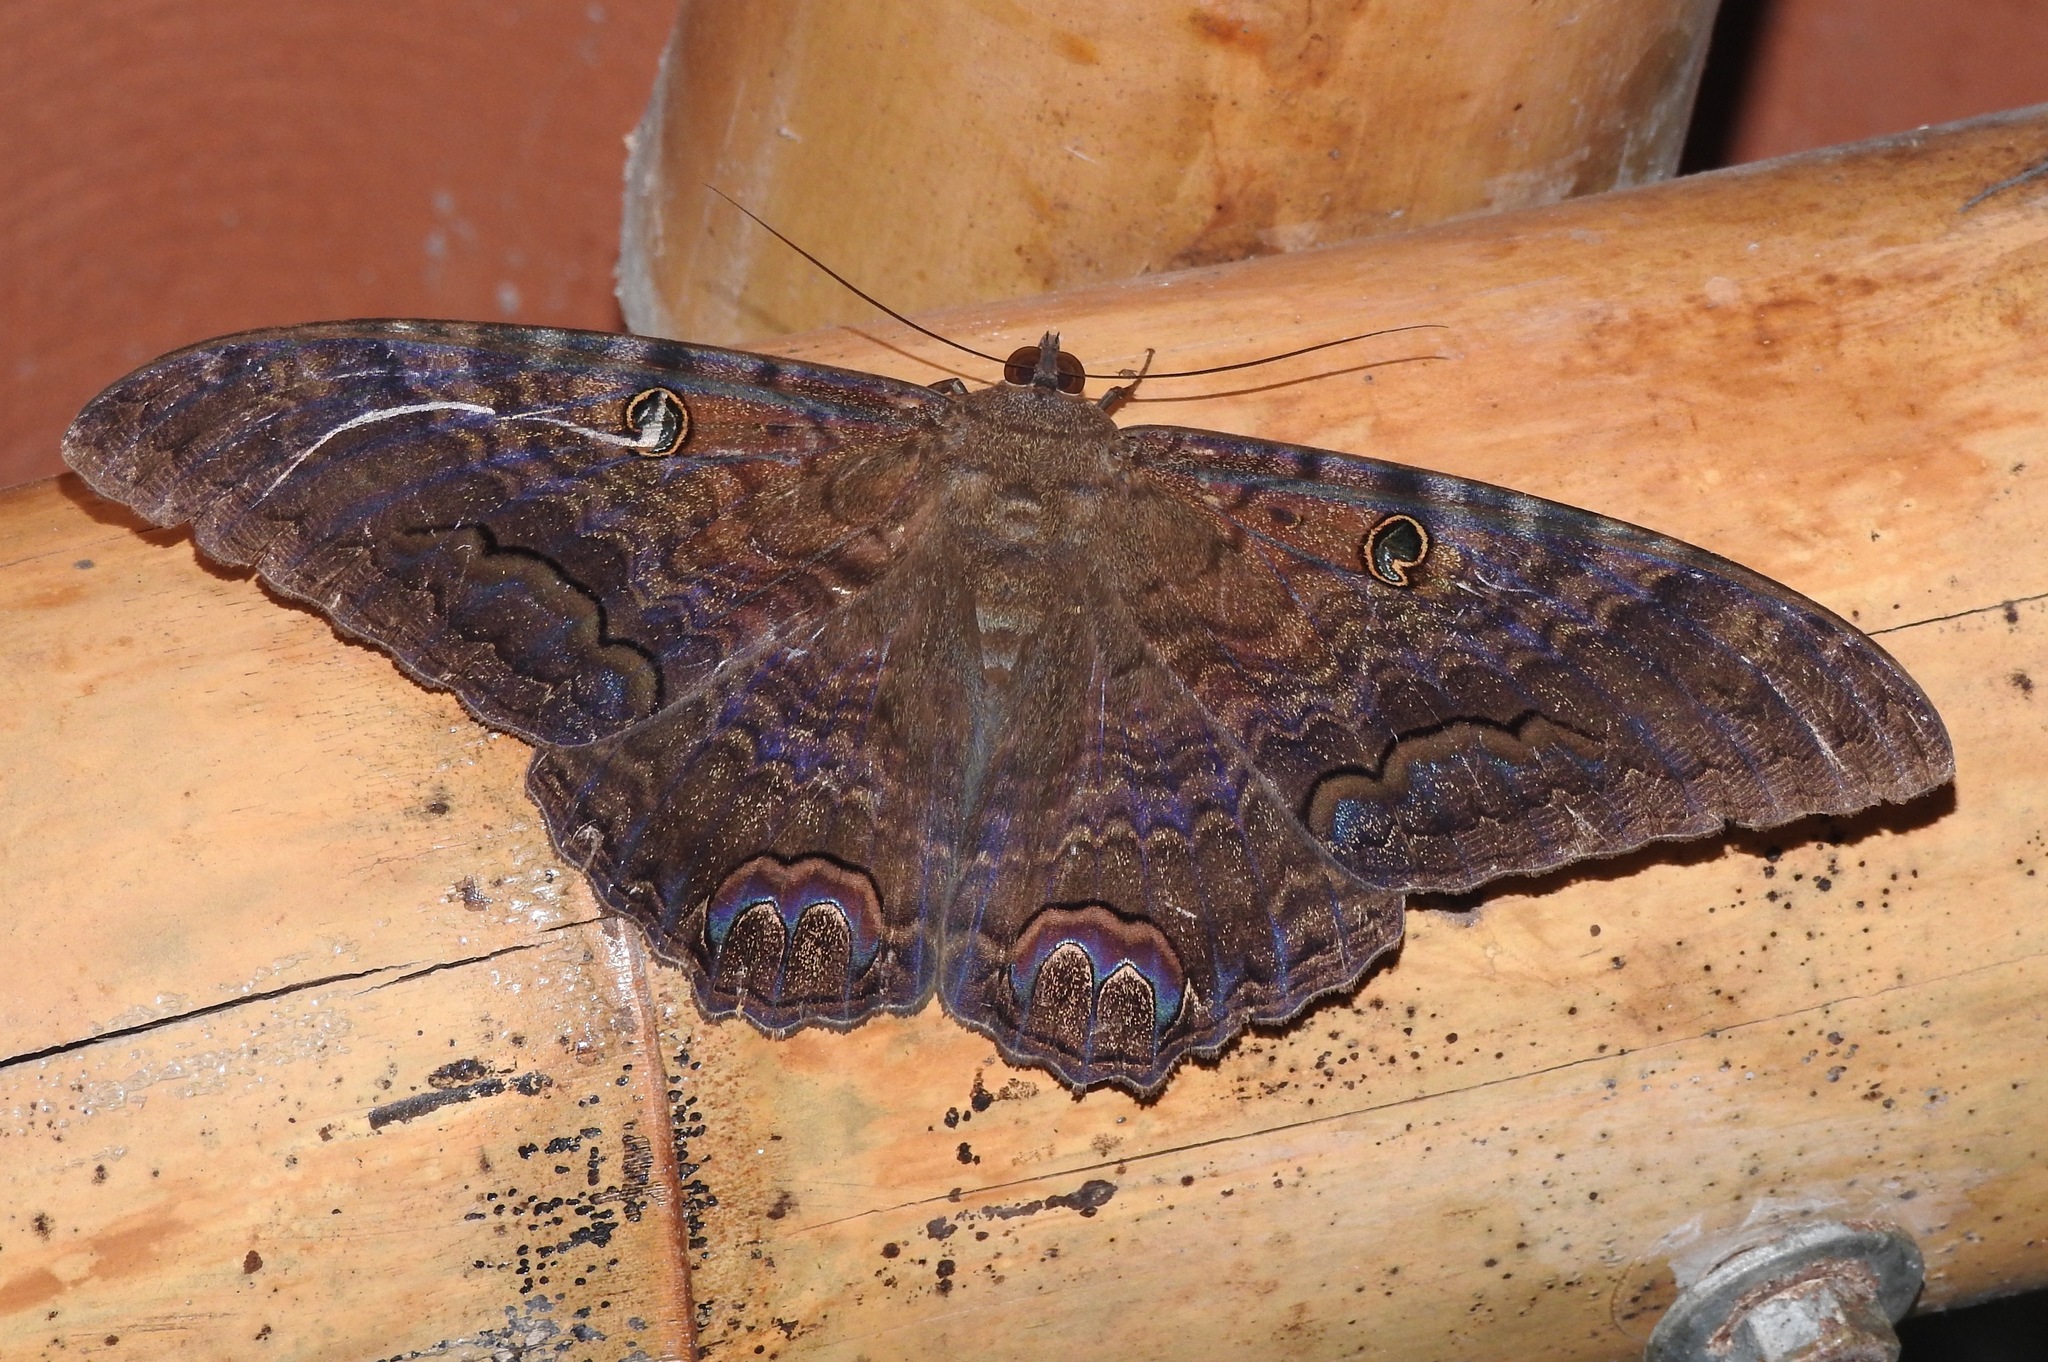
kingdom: Animalia
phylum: Arthropoda
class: Insecta
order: Lepidoptera
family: Erebidae
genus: Ascalapha
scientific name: Ascalapha odorata
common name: Black witch
